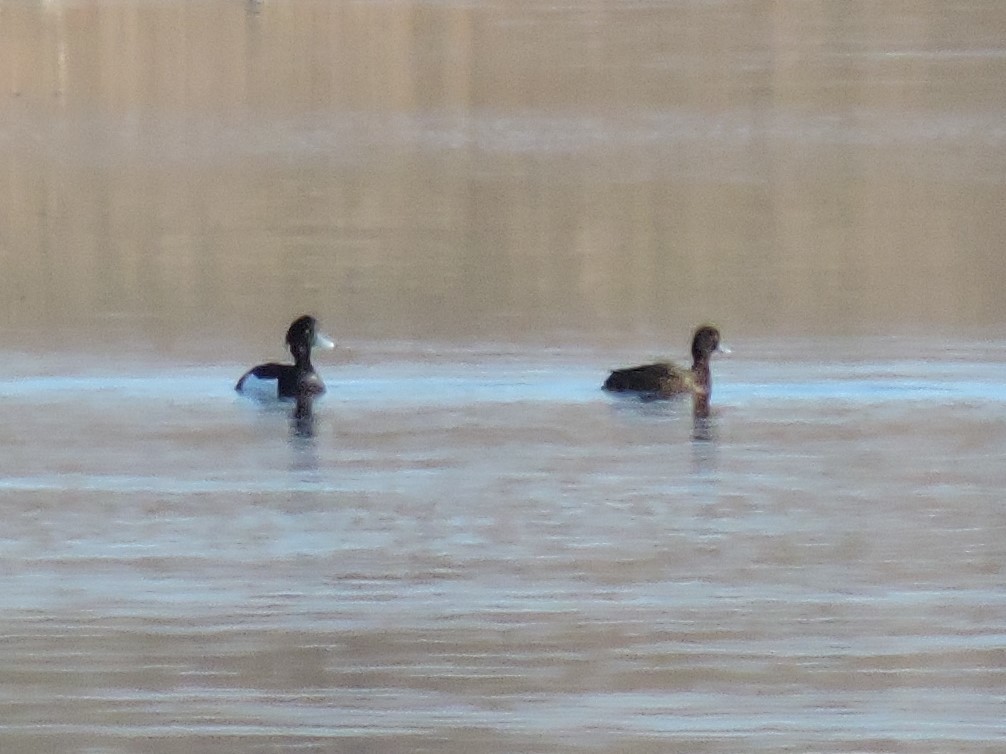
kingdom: Animalia
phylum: Chordata
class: Aves
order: Anseriformes
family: Anatidae
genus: Aythya
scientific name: Aythya fuligula
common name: Tufted duck
